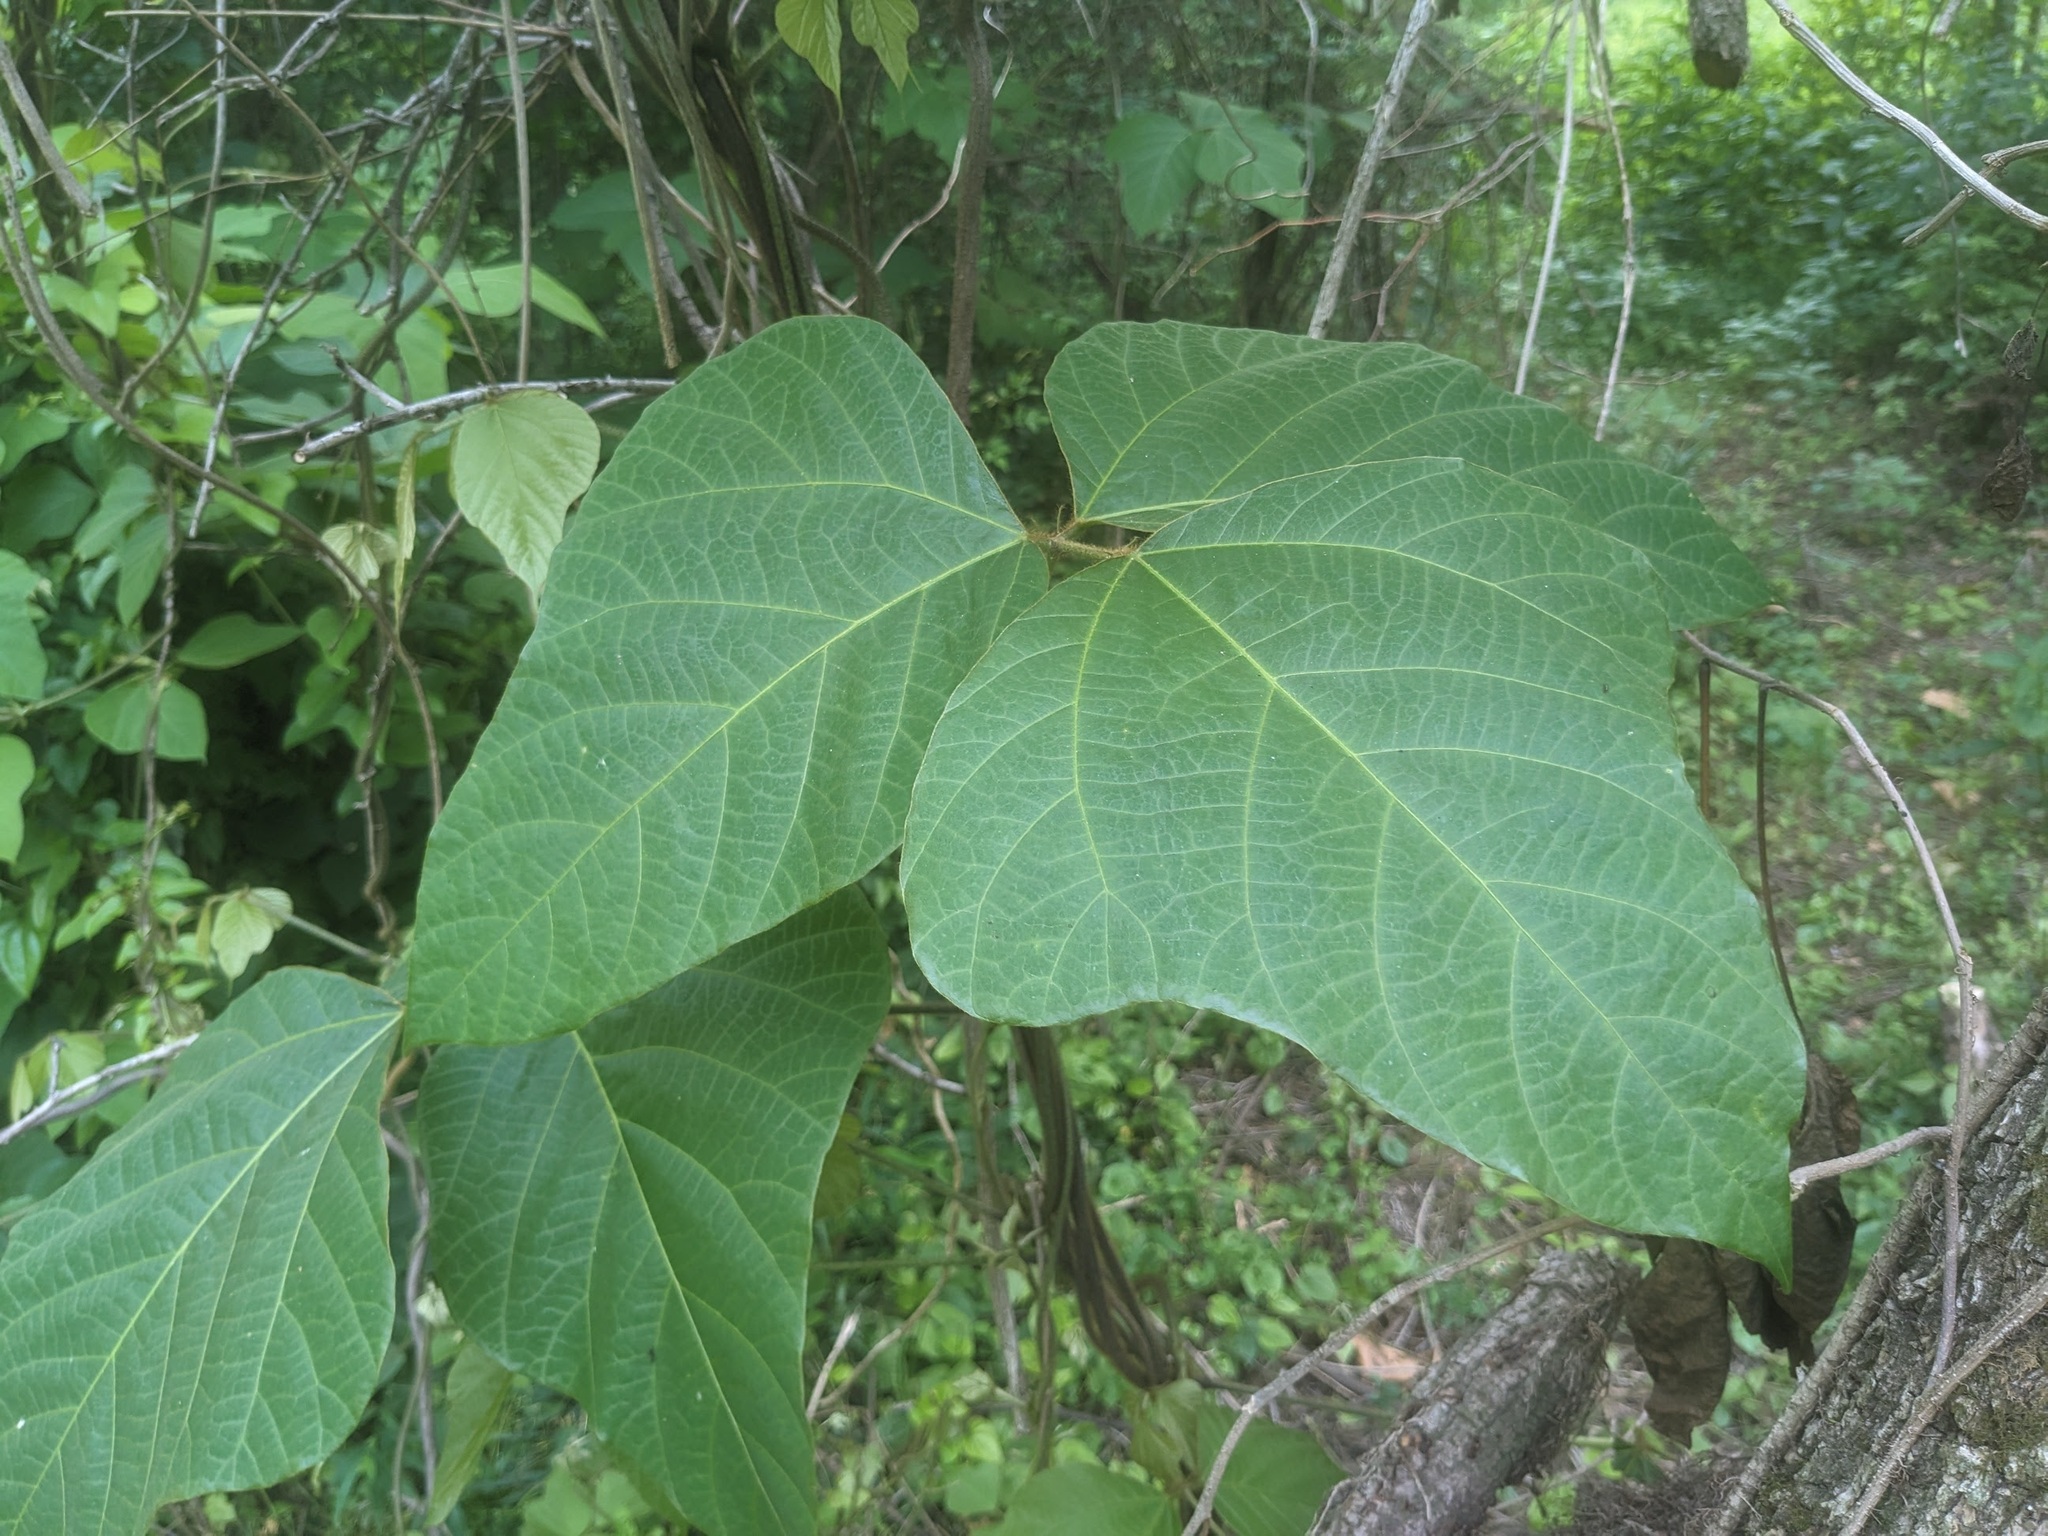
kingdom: Plantae
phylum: Tracheophyta
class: Magnoliopsida
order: Fabales
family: Fabaceae
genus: Pueraria
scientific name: Pueraria montana
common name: Kudzu
